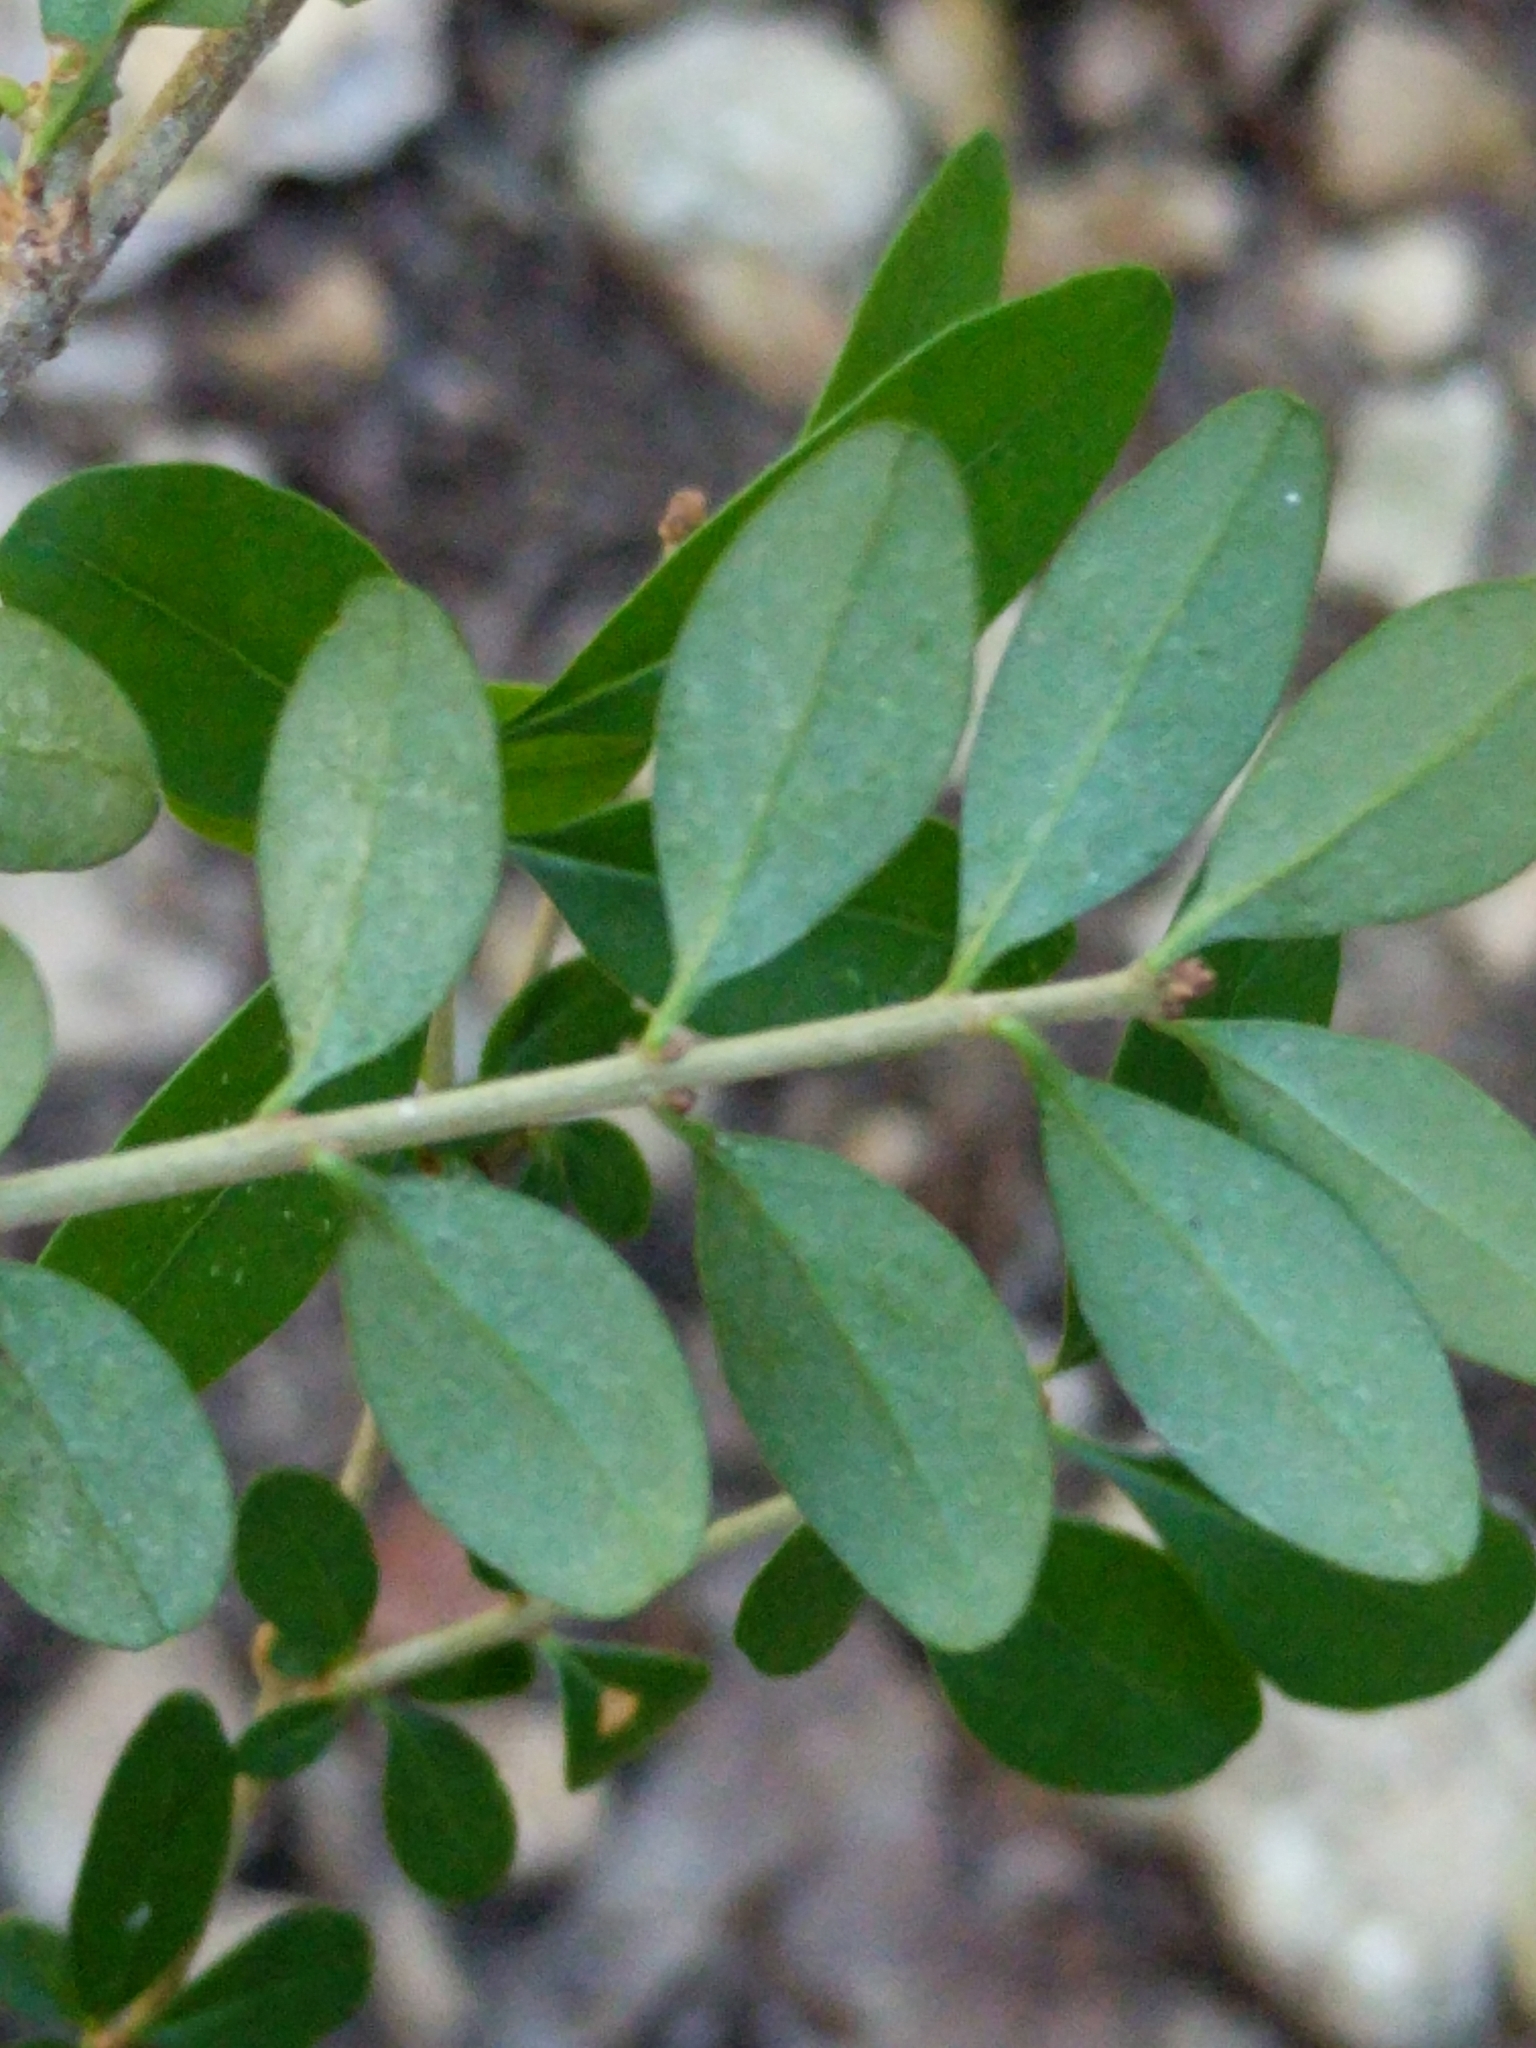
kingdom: Plantae
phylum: Tracheophyta
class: Magnoliopsida
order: Lamiales
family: Oleaceae
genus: Ligustrum
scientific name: Ligustrum quihoui
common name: Waxyleaf privet
